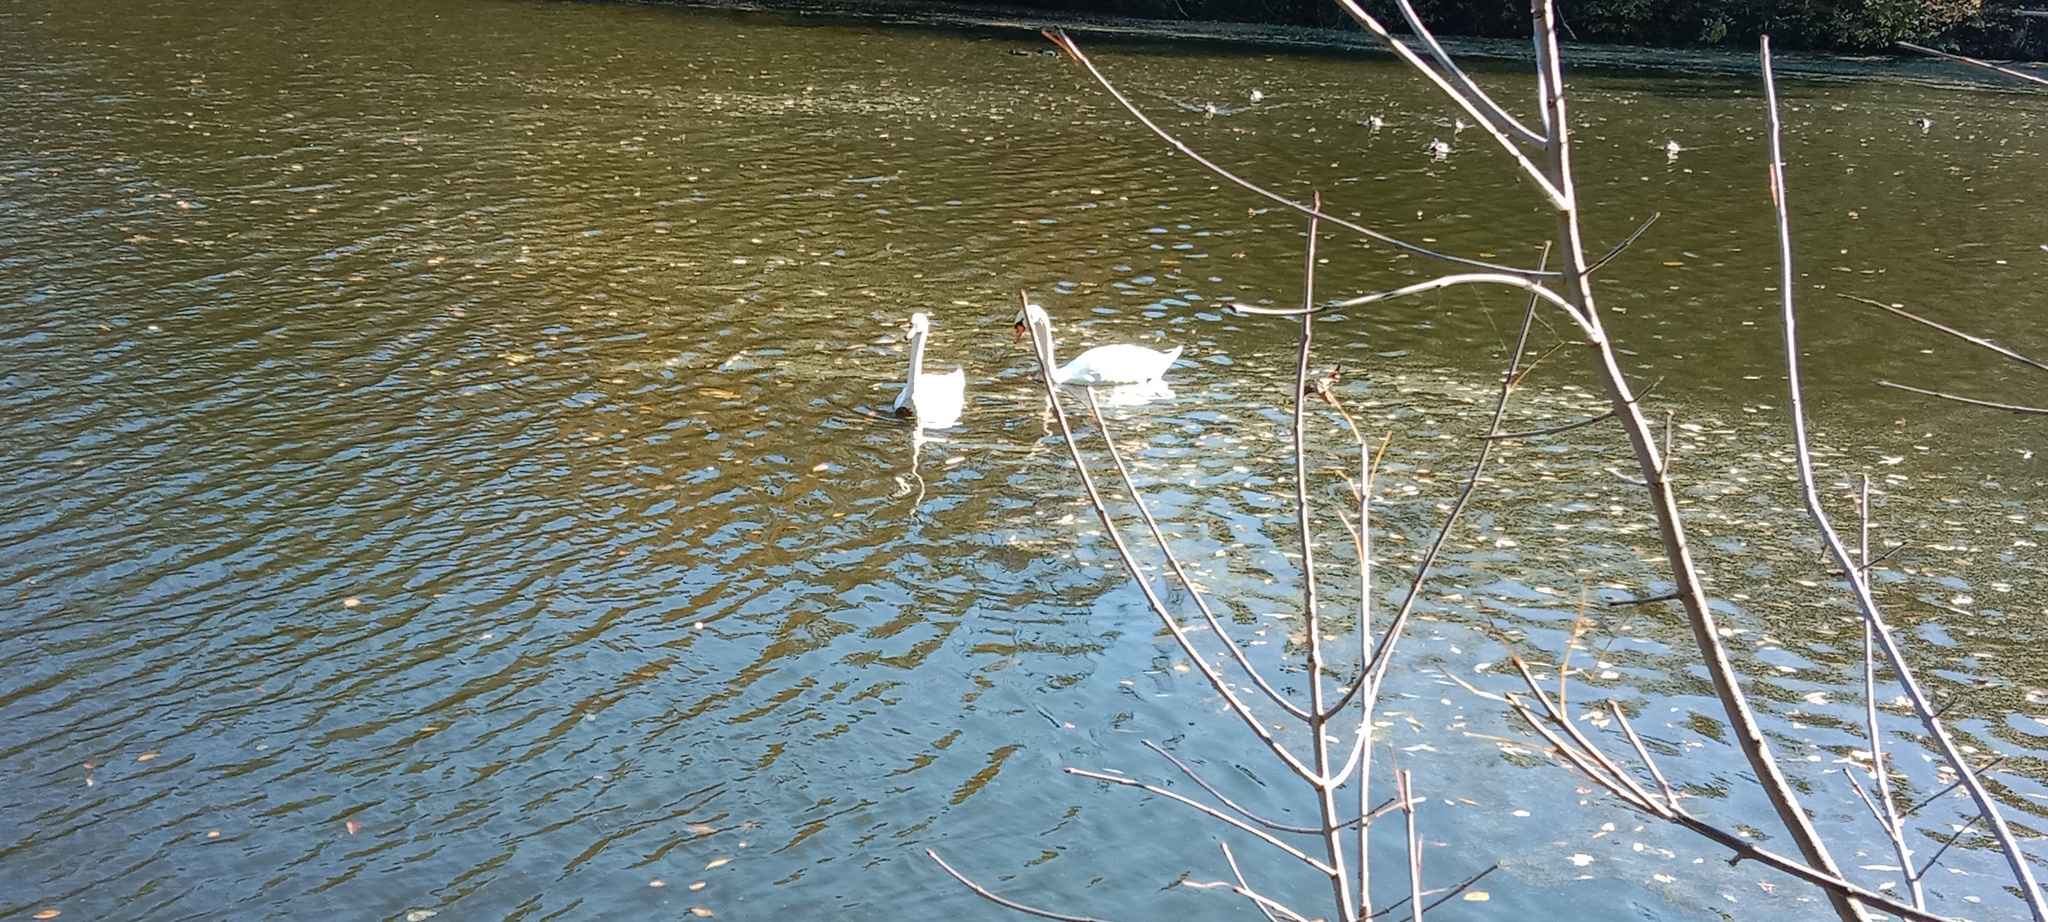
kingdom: Animalia
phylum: Chordata
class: Aves
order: Anseriformes
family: Anatidae
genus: Cygnus
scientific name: Cygnus olor
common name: Mute swan
